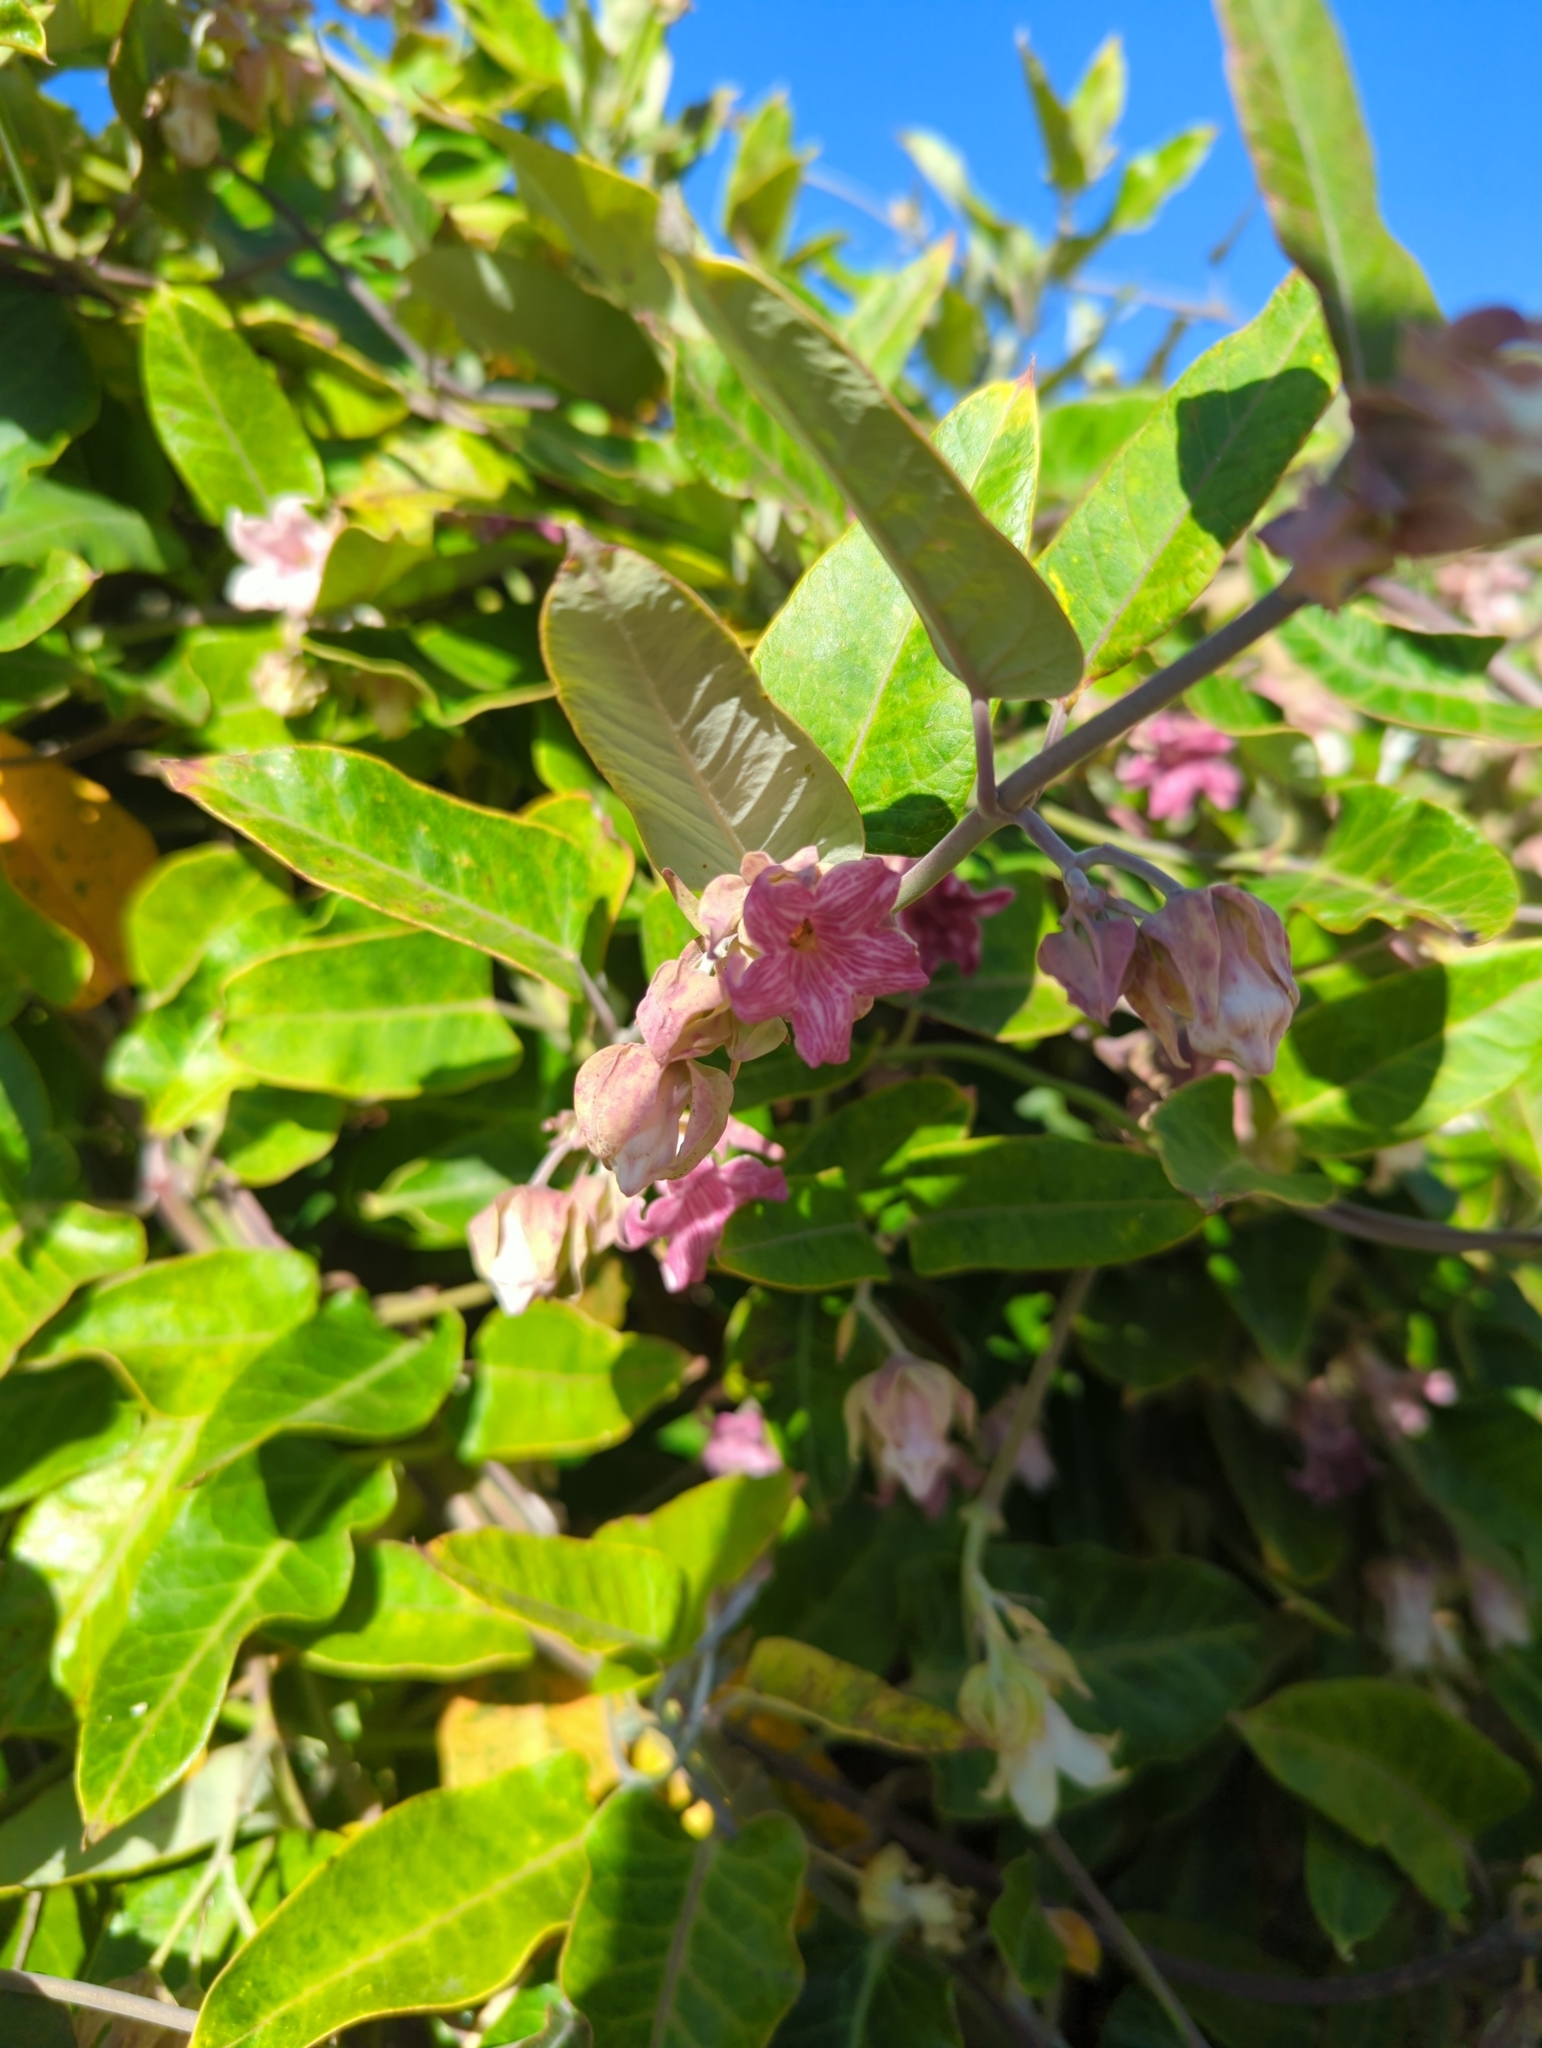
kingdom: Plantae
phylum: Tracheophyta
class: Magnoliopsida
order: Gentianales
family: Apocynaceae
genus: Araujia
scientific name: Araujia sericifera
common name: White bladderflower
